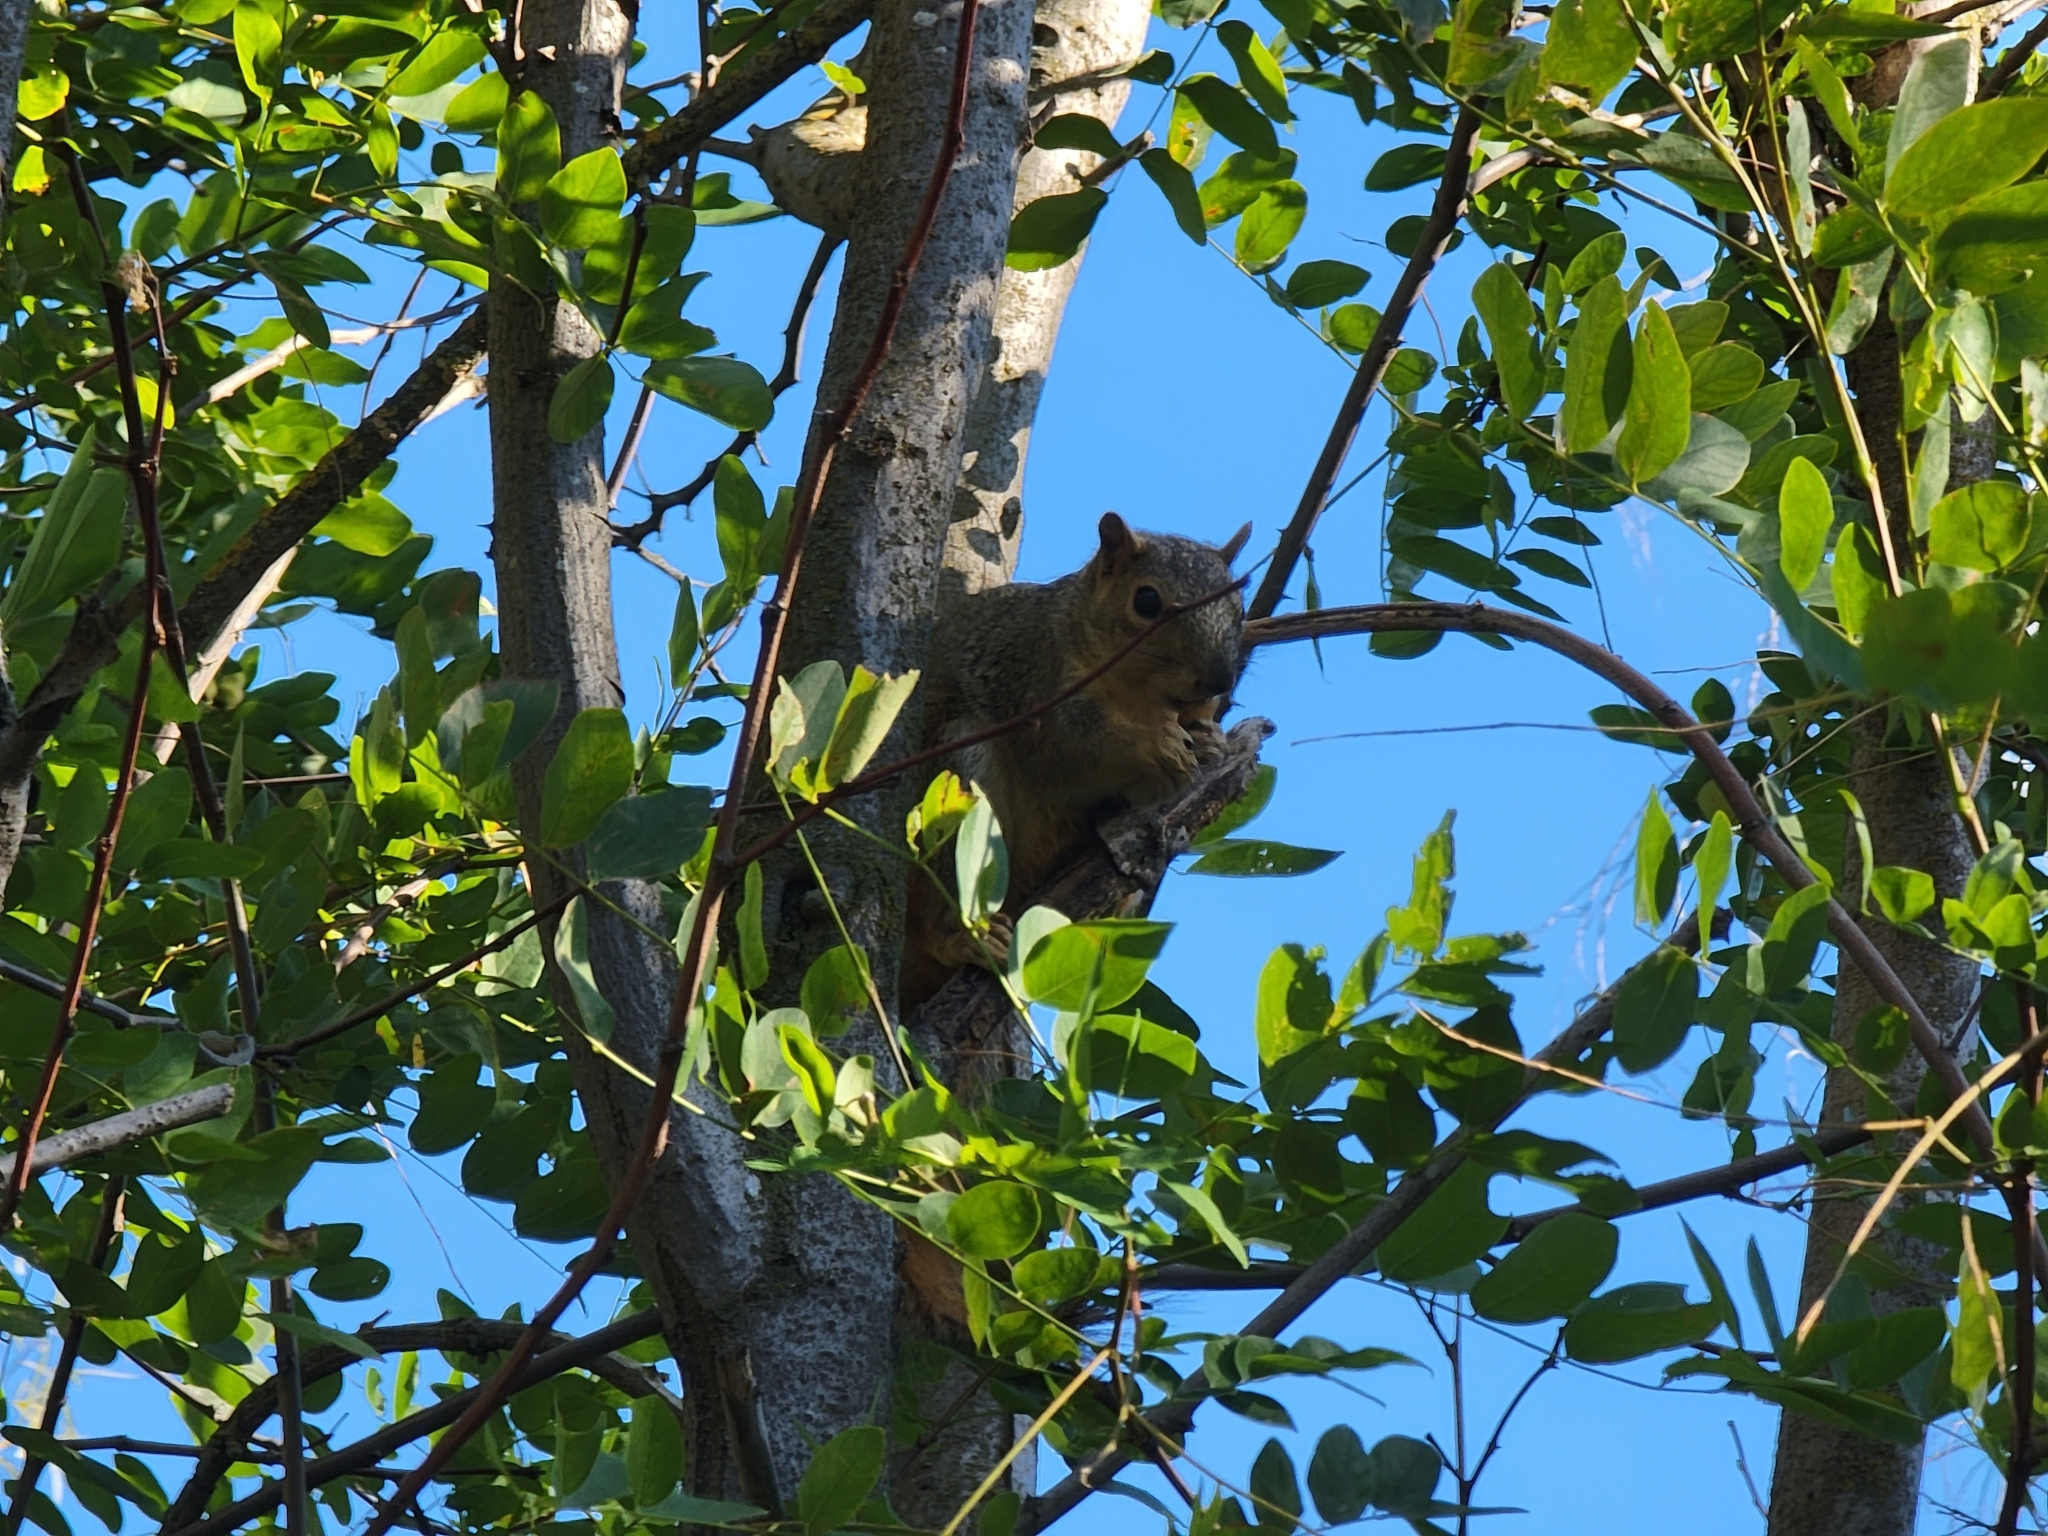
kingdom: Animalia
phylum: Chordata
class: Mammalia
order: Rodentia
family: Sciuridae
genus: Sciurus
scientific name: Sciurus niger
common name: Fox squirrel
